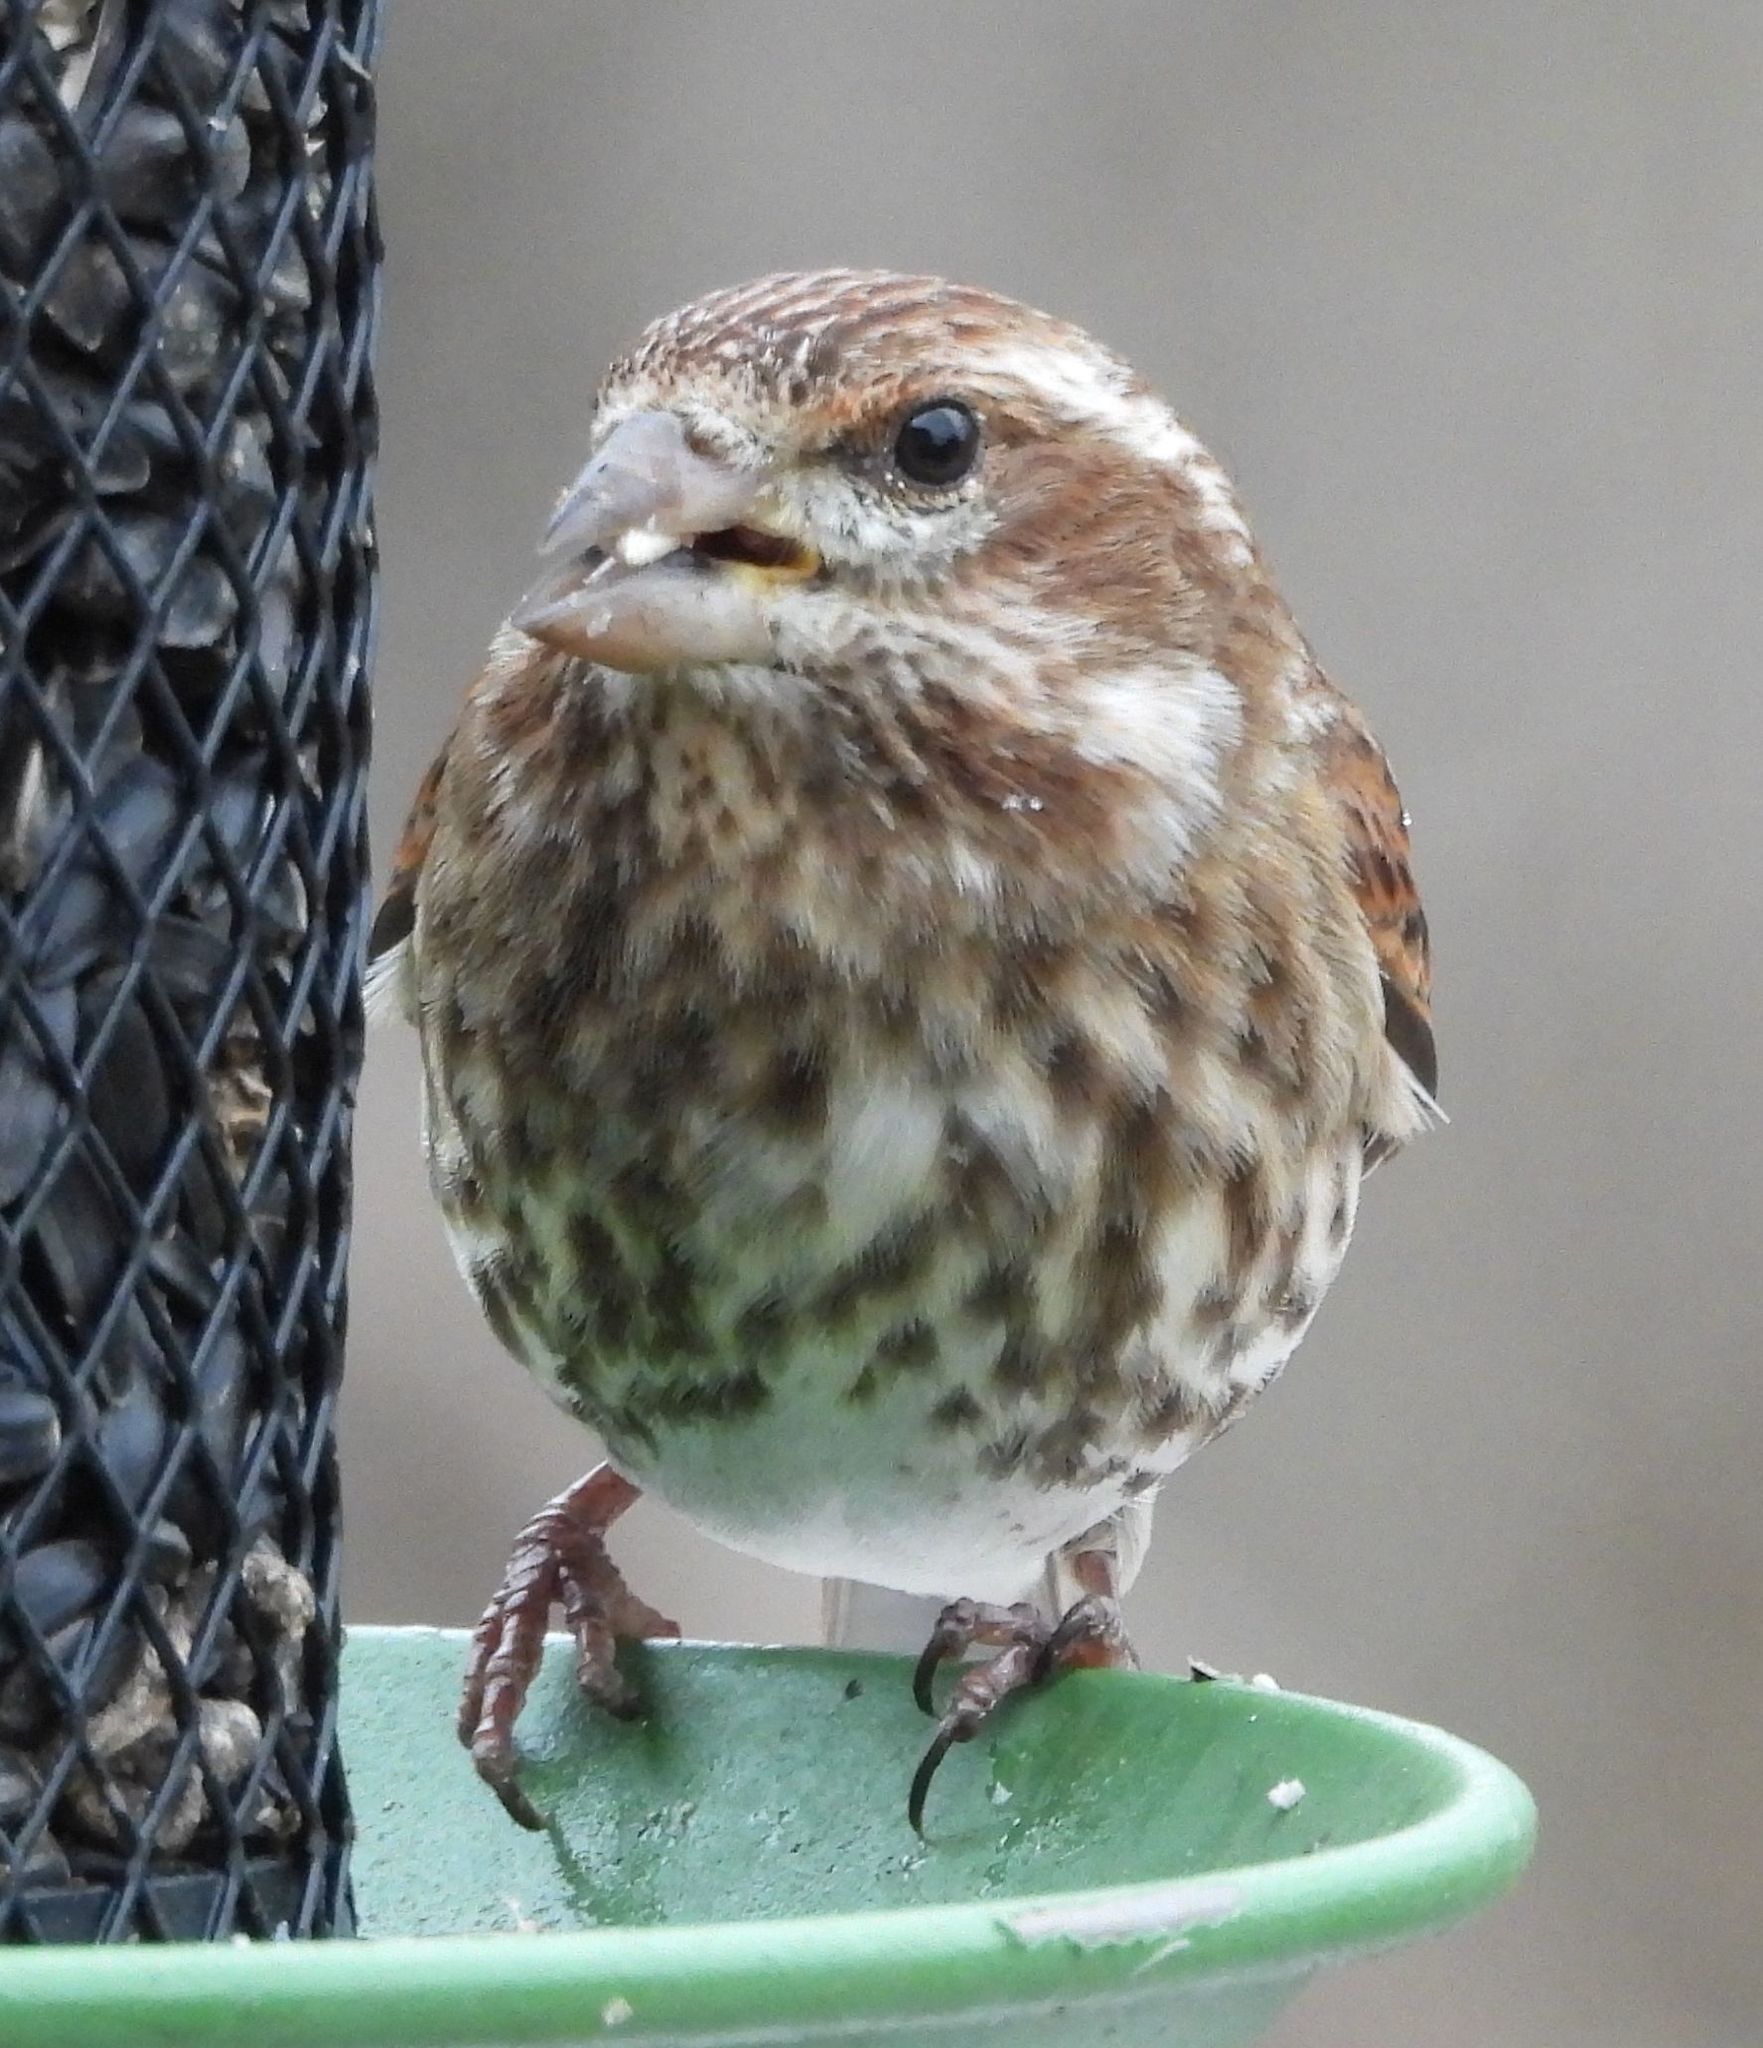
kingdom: Animalia
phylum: Chordata
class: Aves
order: Passeriformes
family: Fringillidae
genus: Haemorhous
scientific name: Haemorhous purpureus
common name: Purple finch
